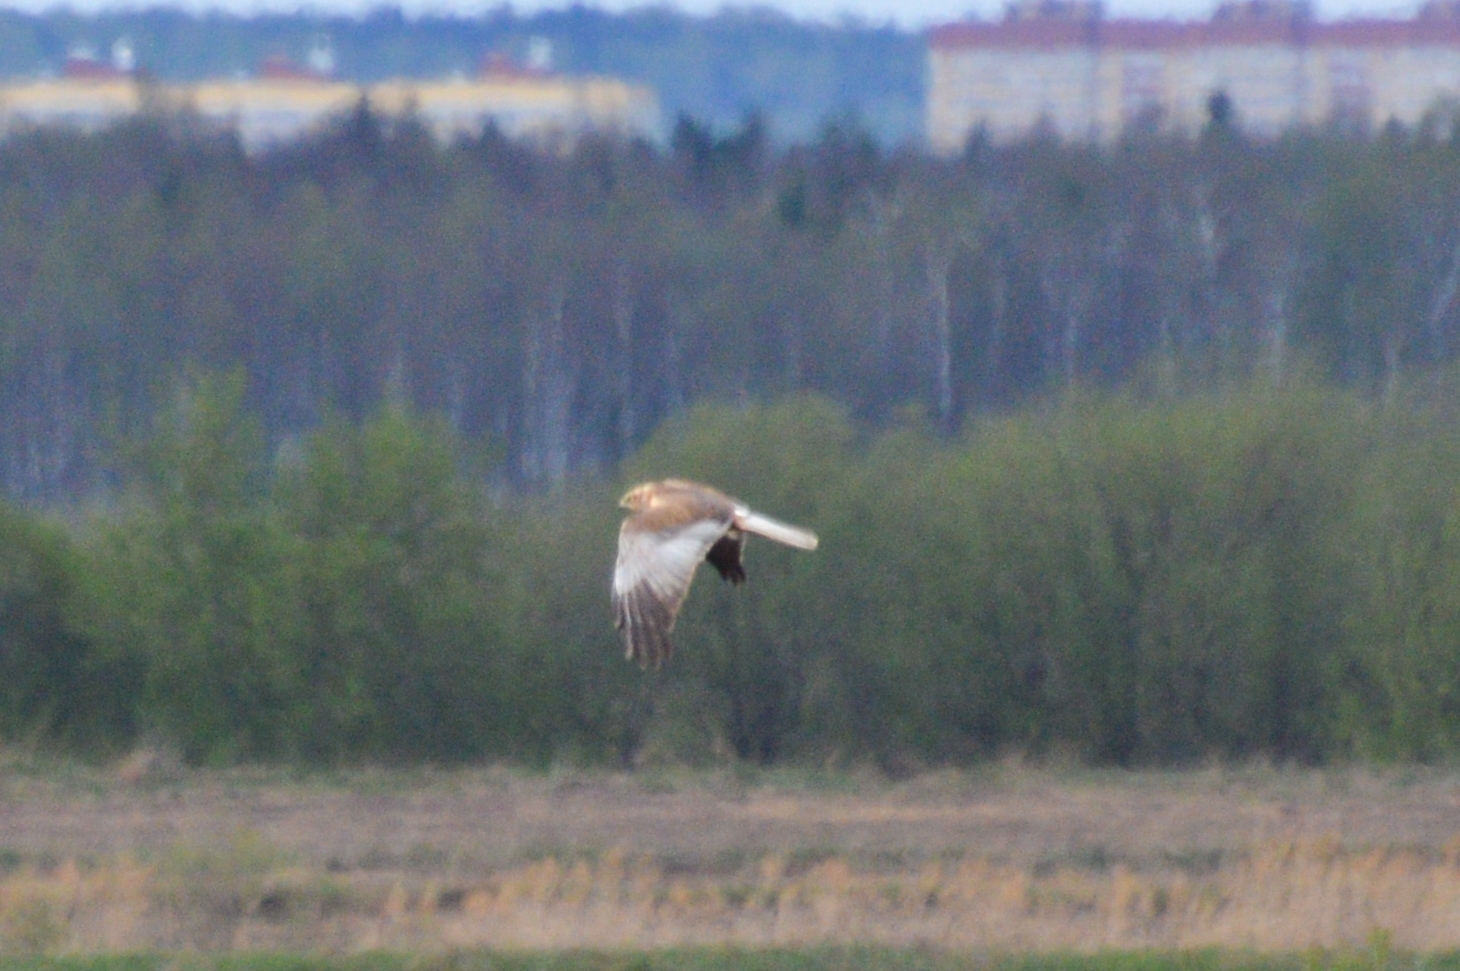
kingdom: Animalia
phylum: Chordata
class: Aves
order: Accipitriformes
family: Accipitridae
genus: Circus
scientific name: Circus aeruginosus
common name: Western marsh harrier
